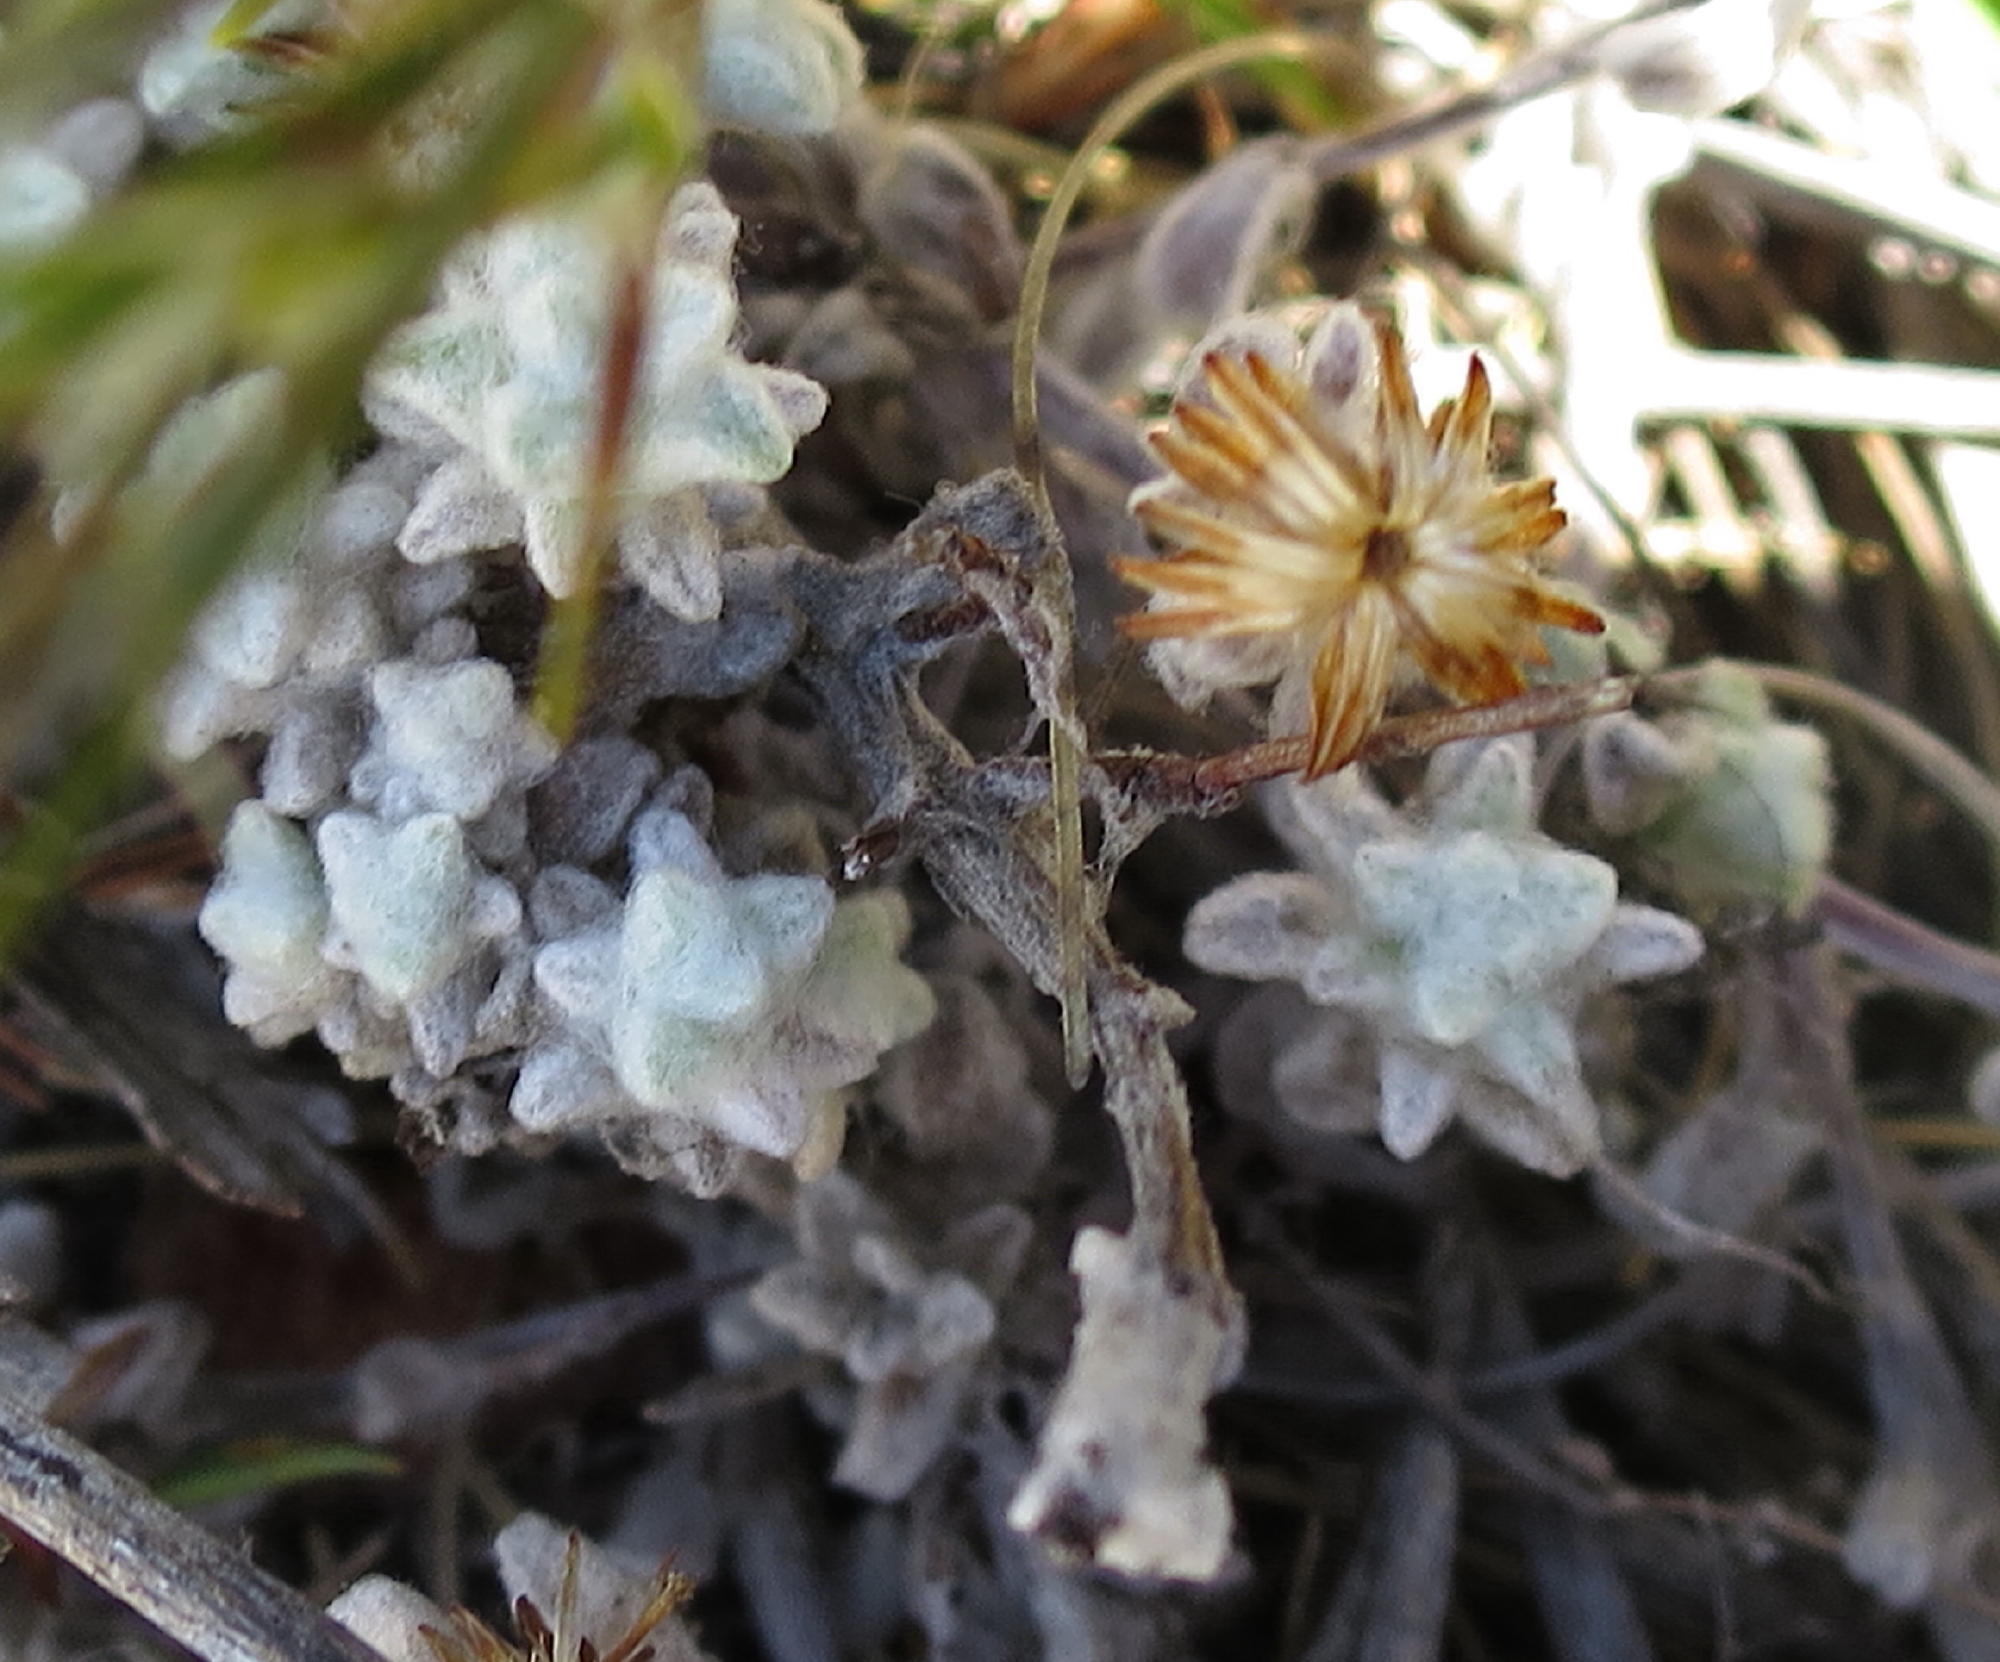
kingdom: Plantae
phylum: Tracheophyta
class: Magnoliopsida
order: Asterales
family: Asteraceae
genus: Helichrysum
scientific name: Helichrysum saxicola
